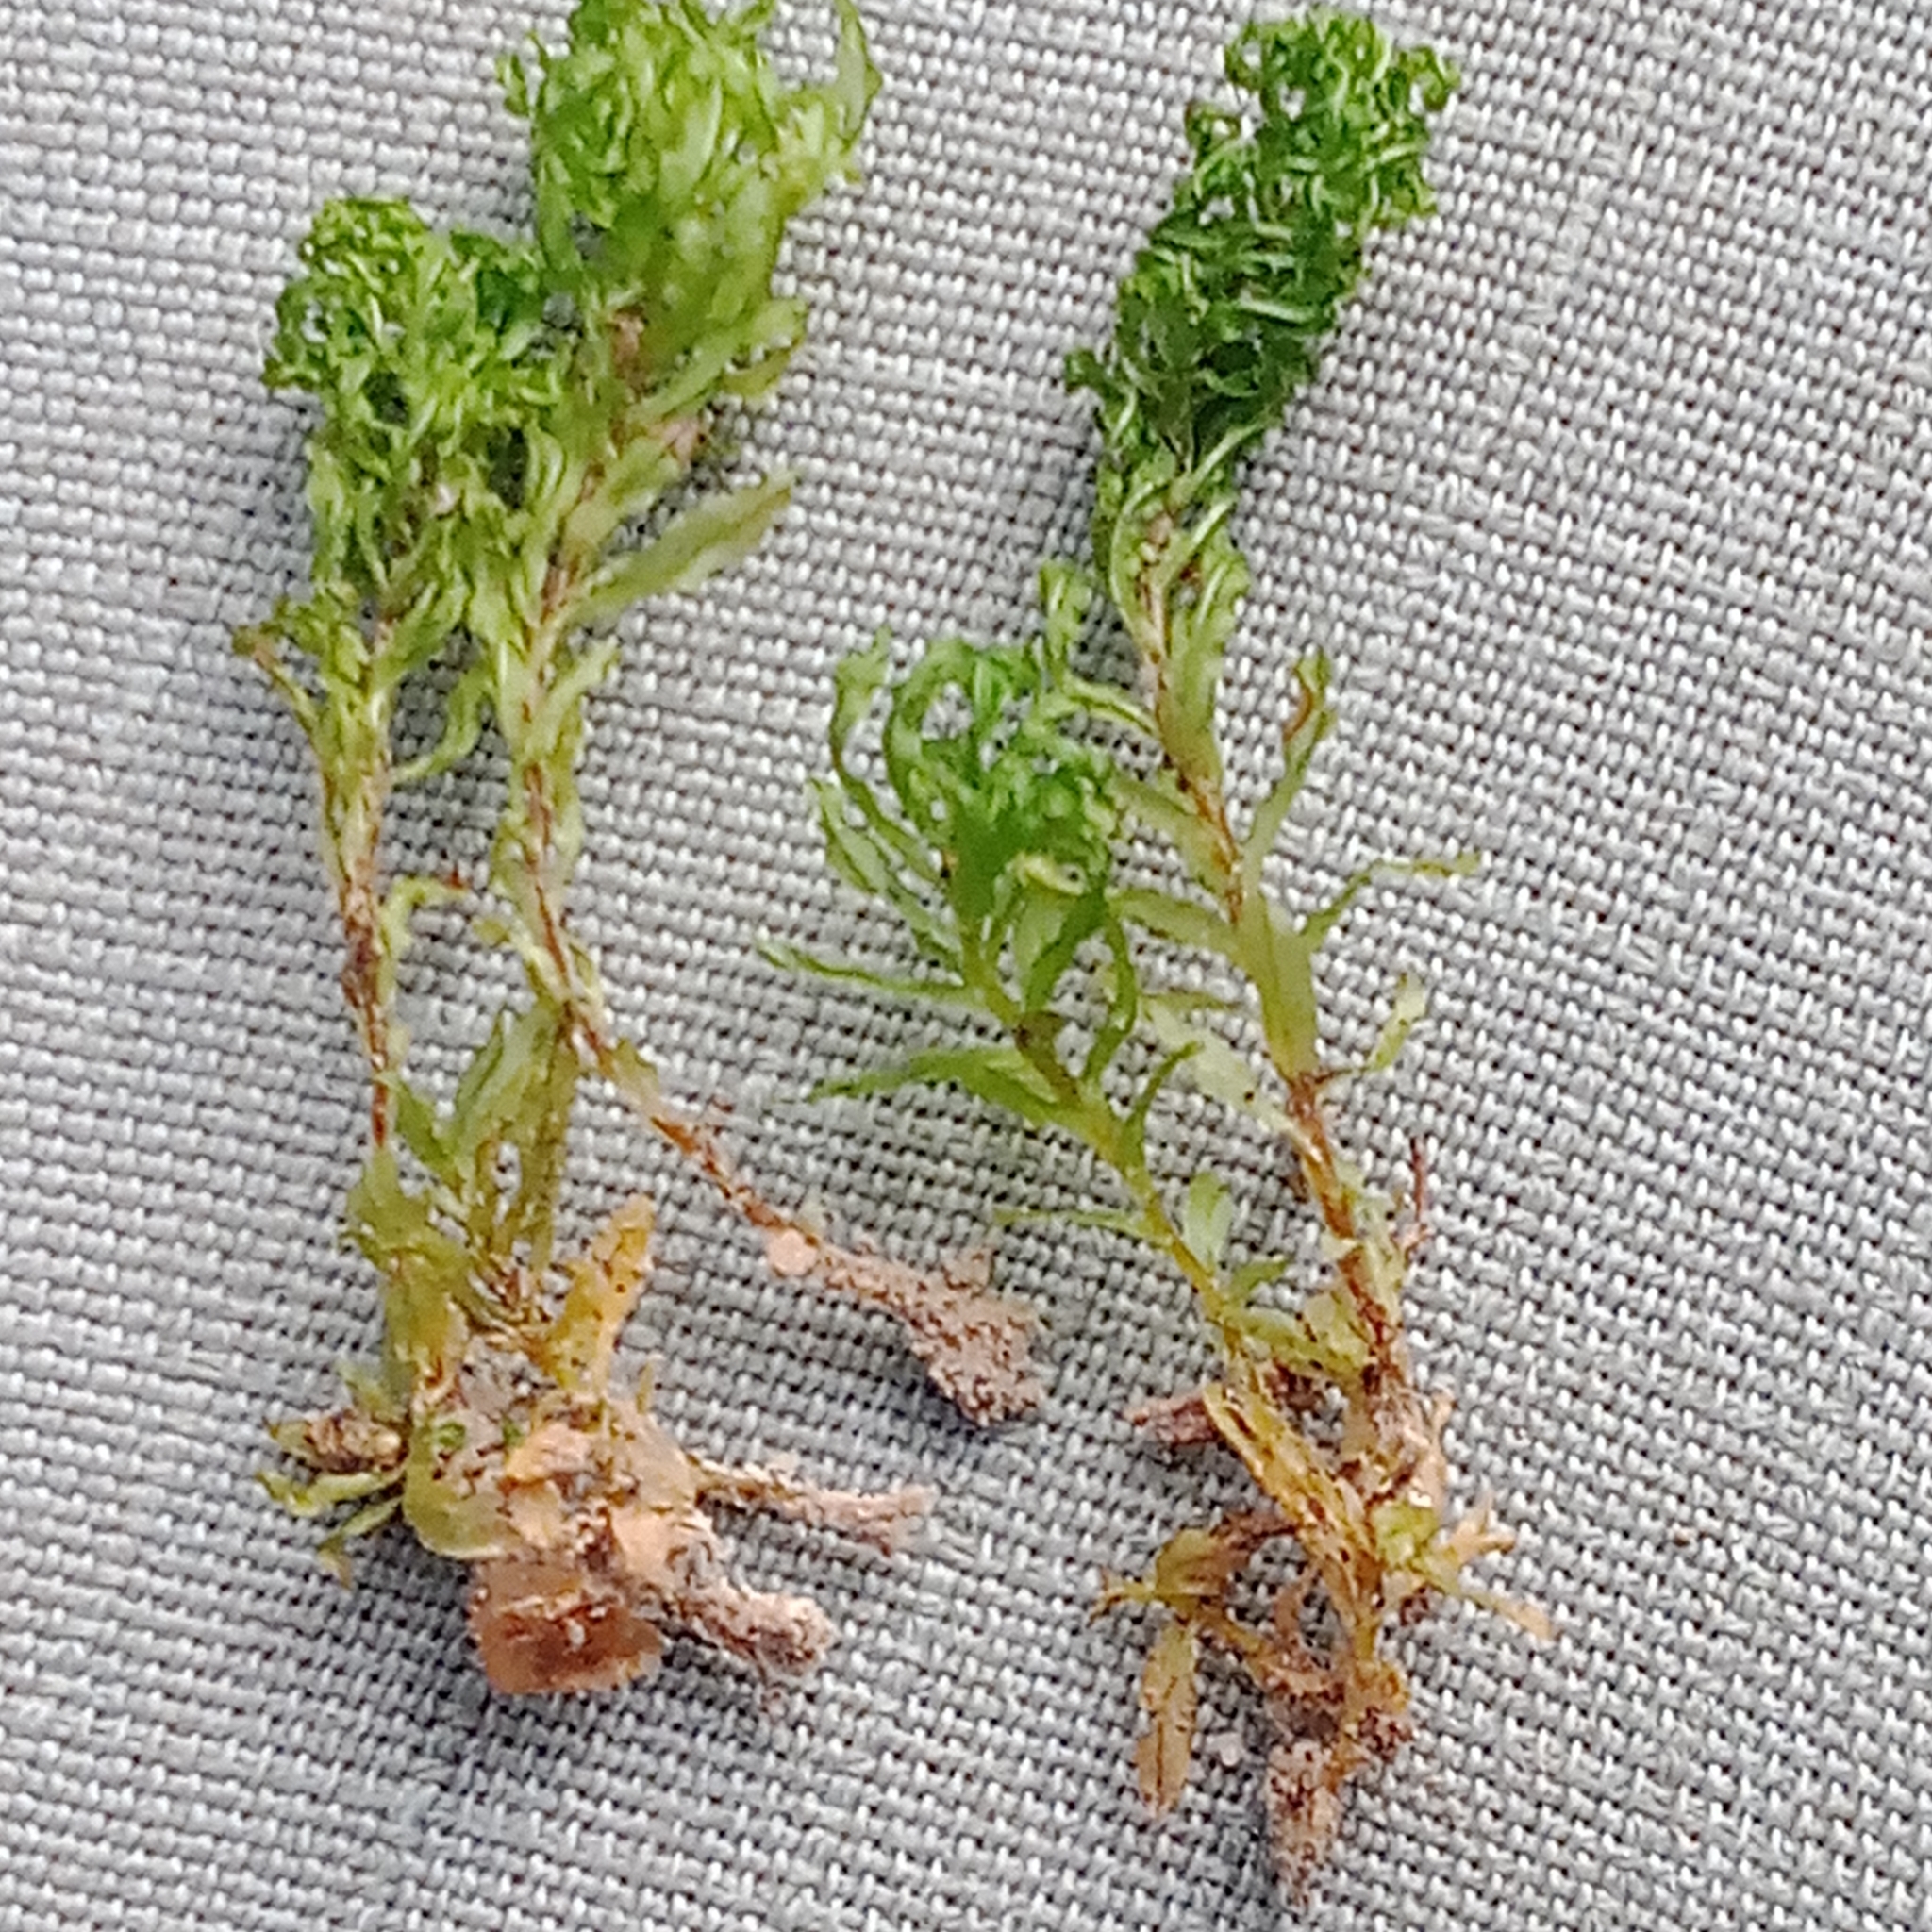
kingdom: Plantae
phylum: Bryophyta
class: Bryopsida
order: Bryales
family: Mniaceae
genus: Plagiomnium
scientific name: Plagiomnium undulatum
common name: Hart's-tongue thyme-moss
